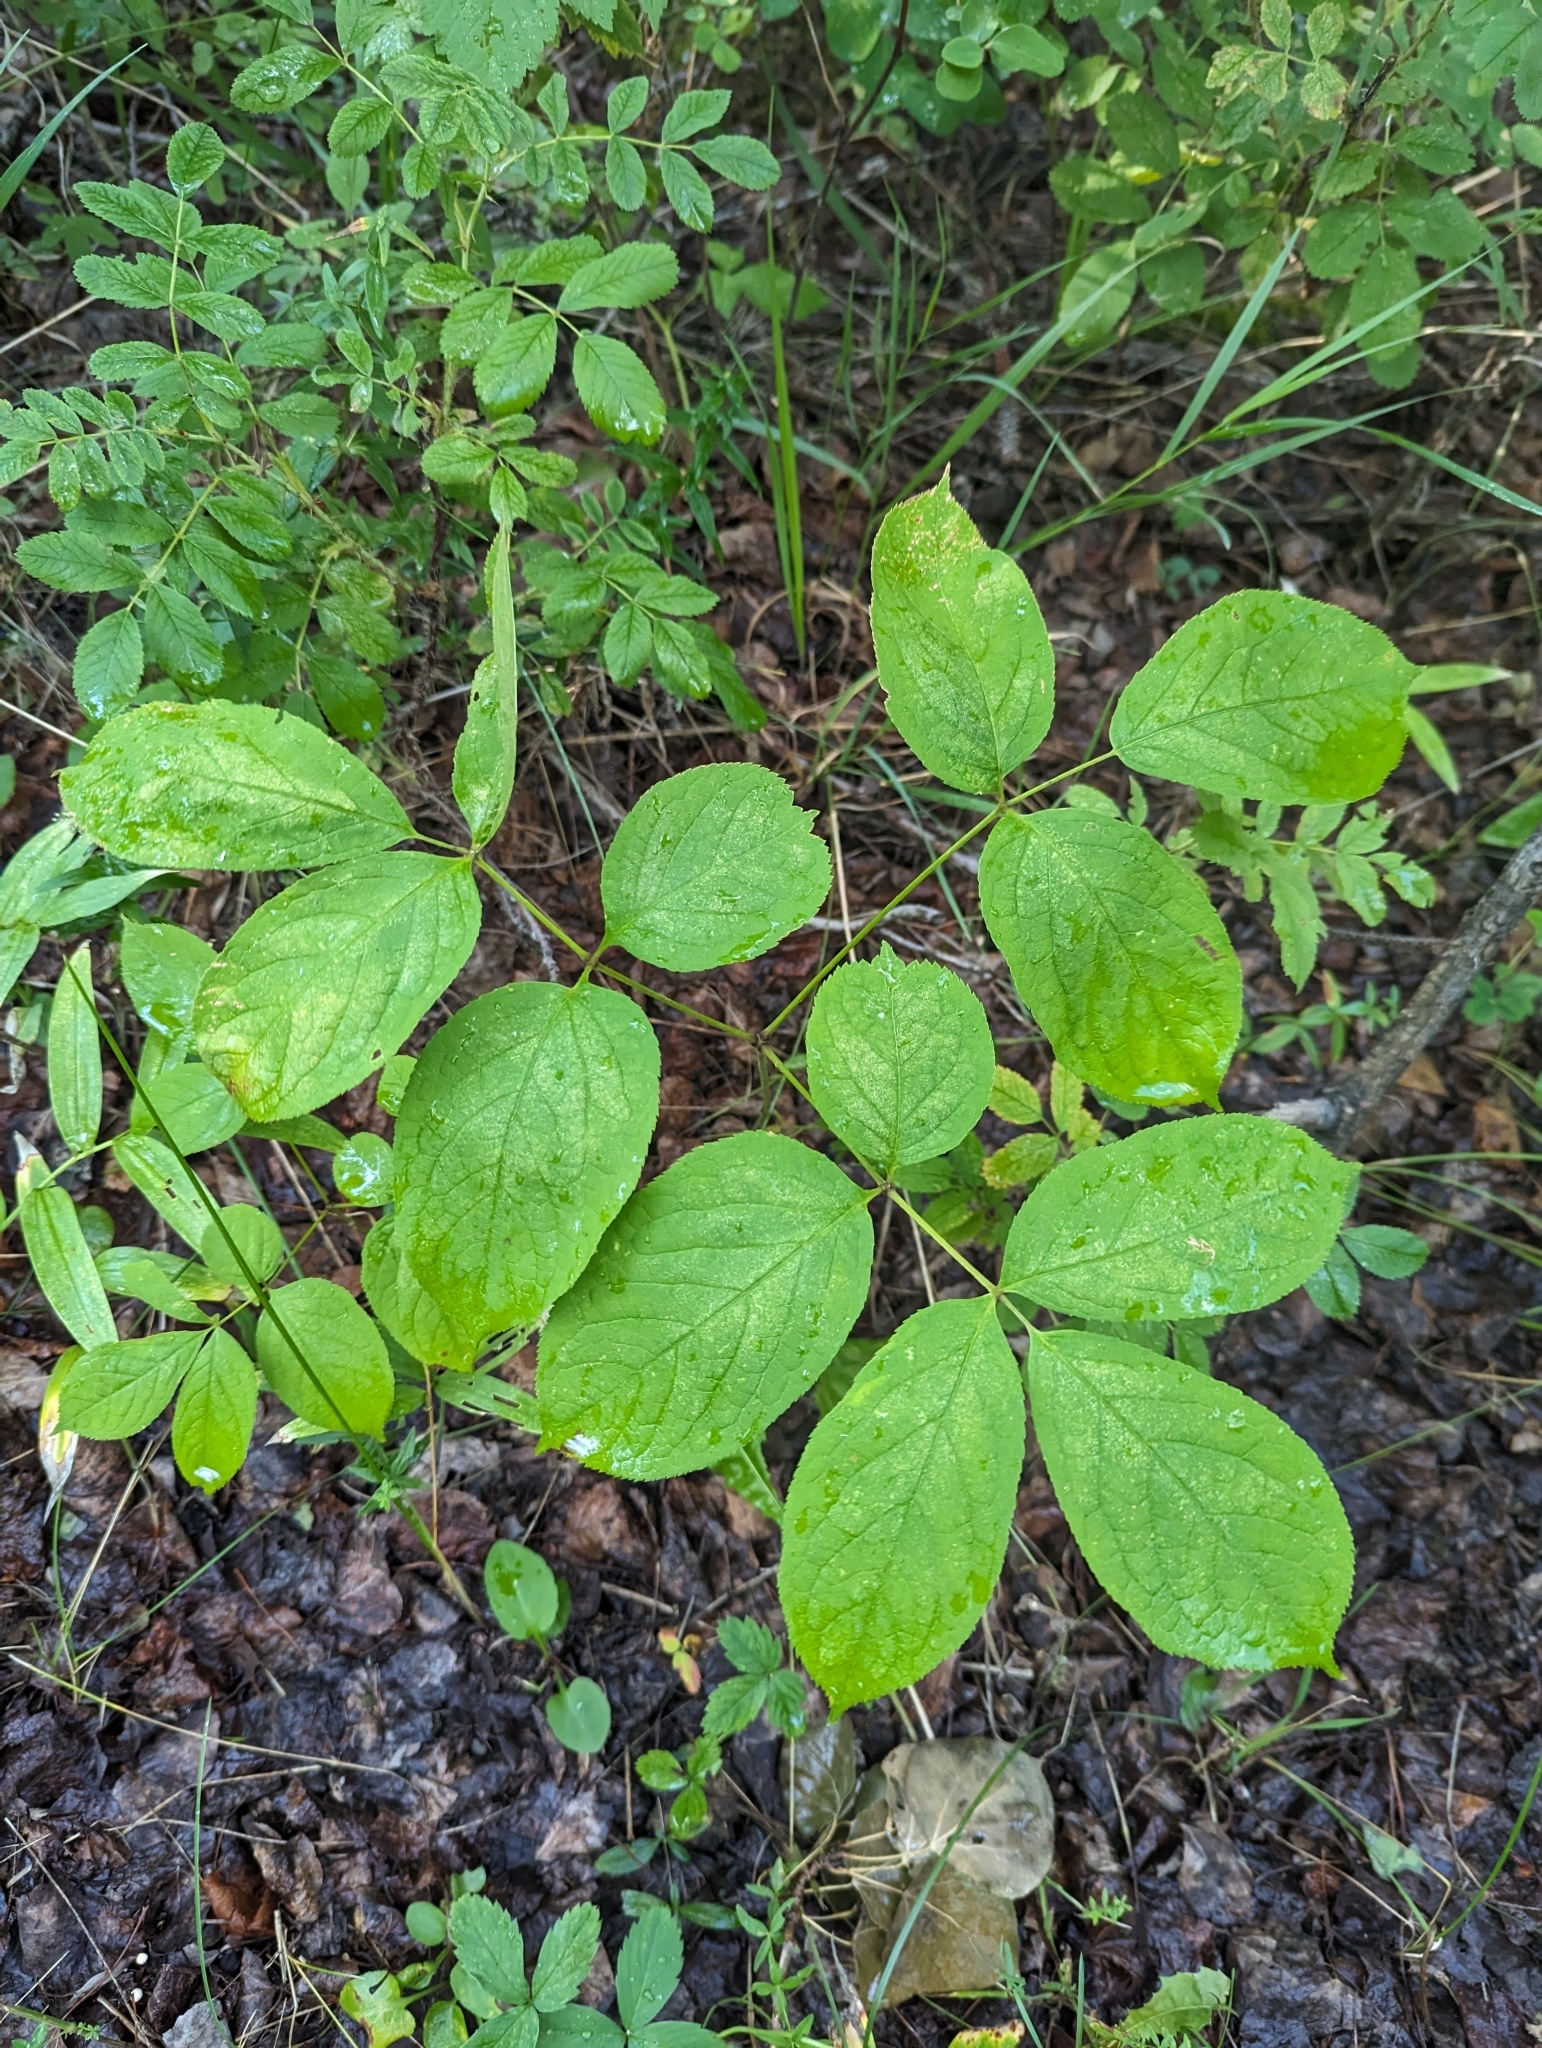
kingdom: Plantae
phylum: Tracheophyta
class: Magnoliopsida
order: Apiales
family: Araliaceae
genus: Aralia
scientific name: Aralia nudicaulis
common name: Wild sarsaparilla
